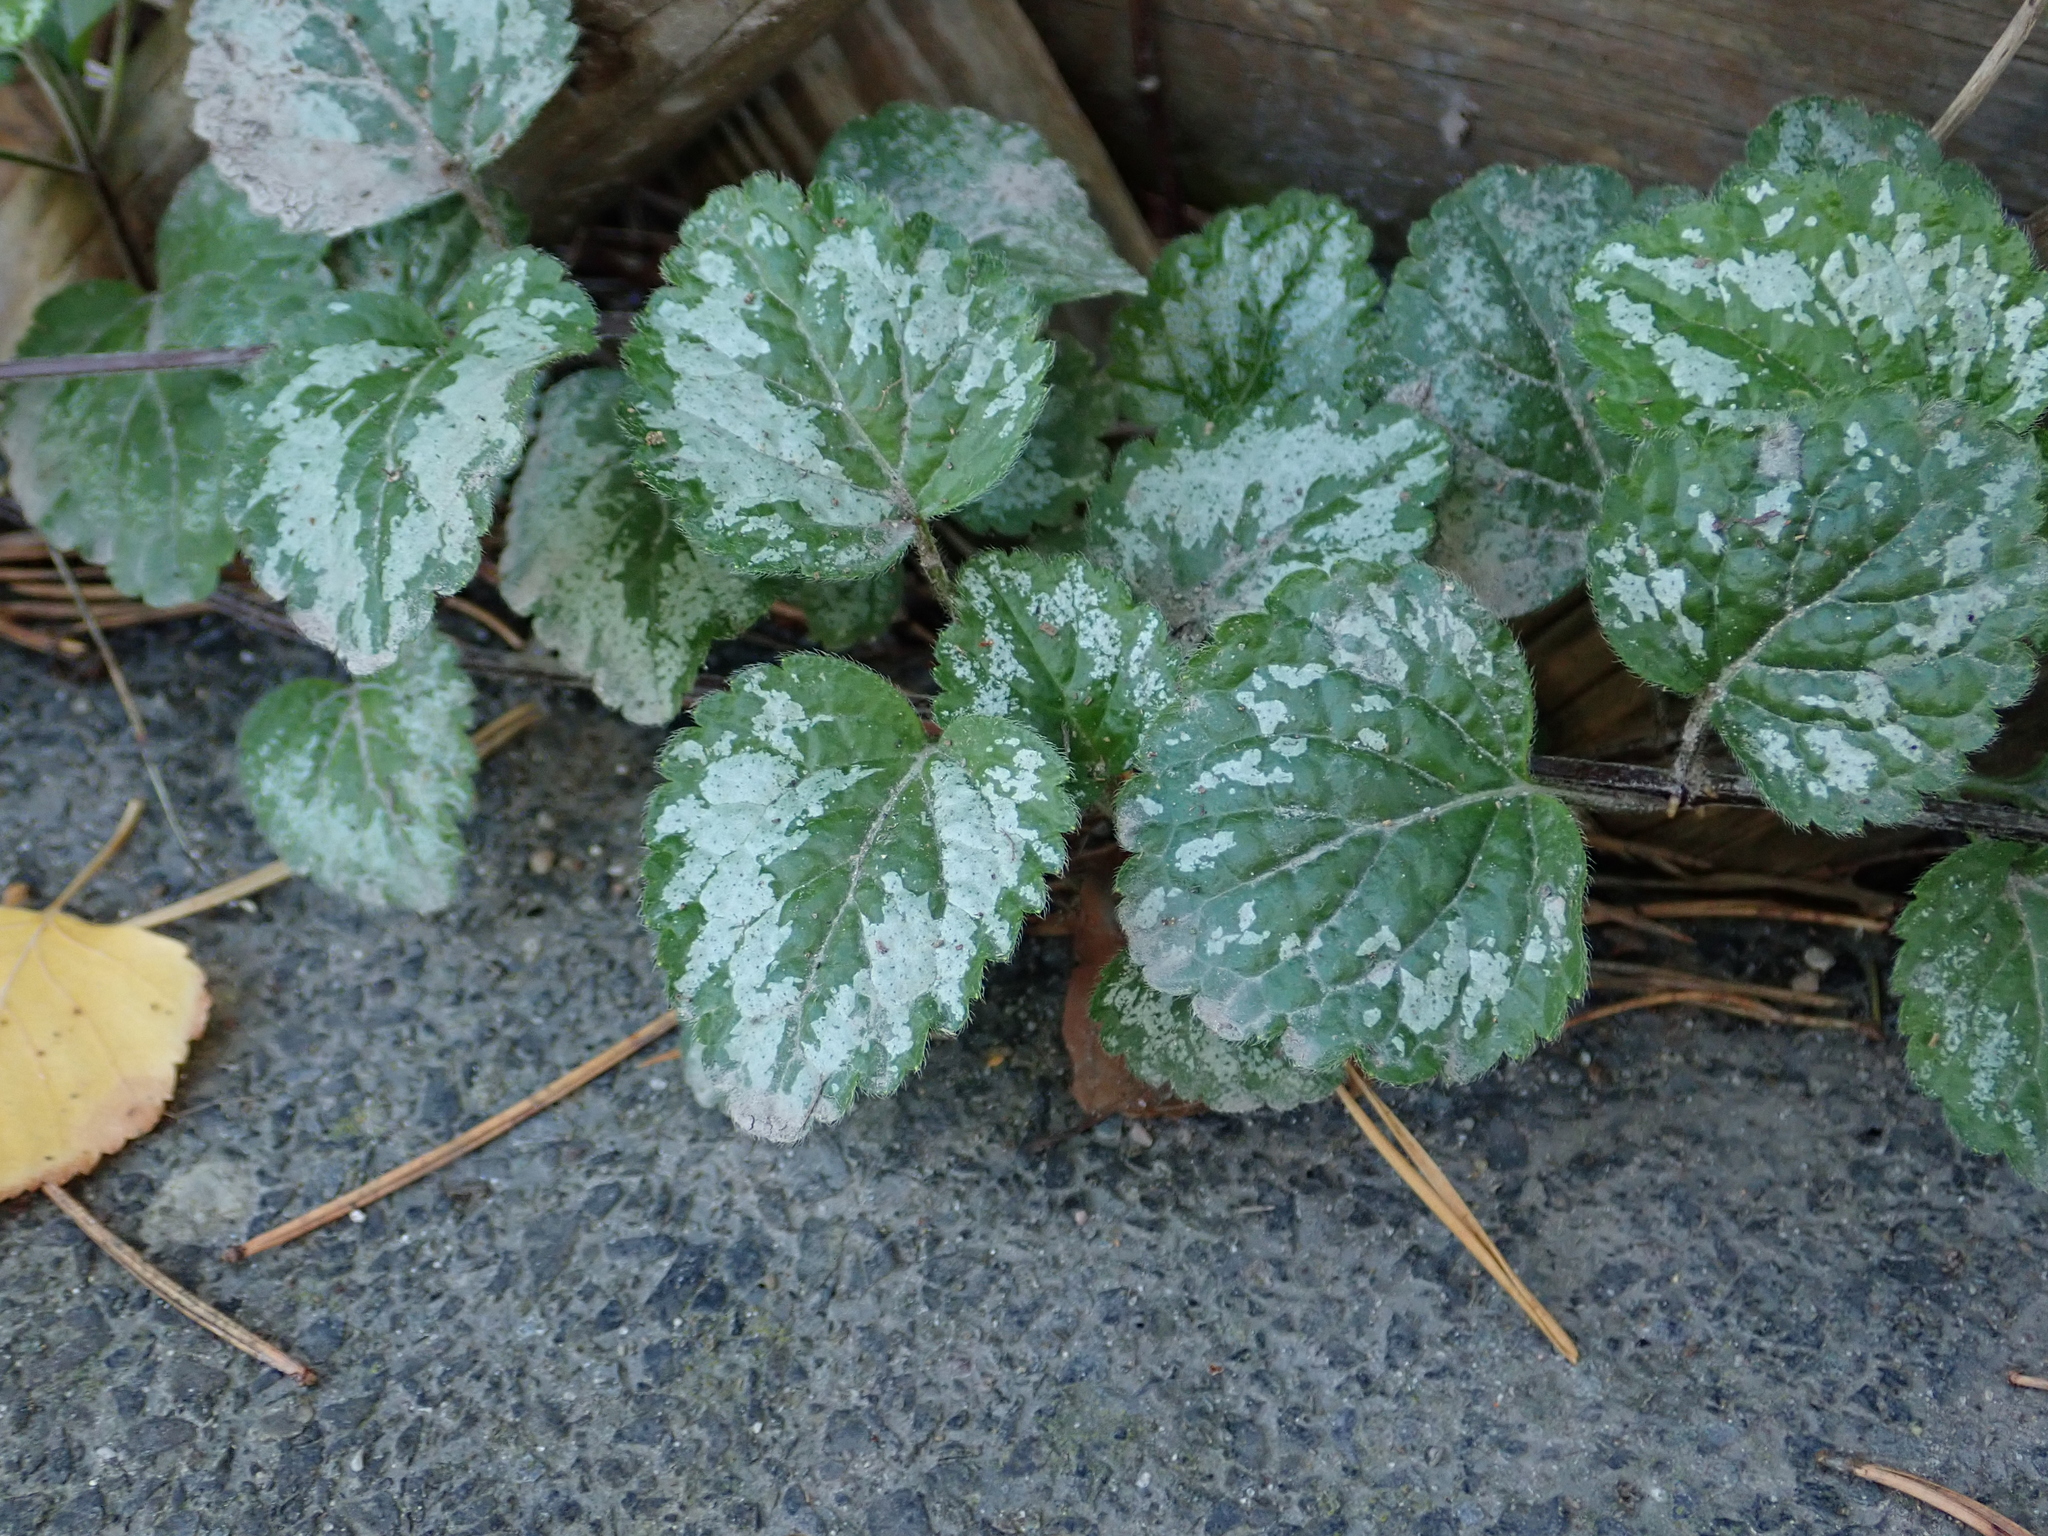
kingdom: Plantae
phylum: Tracheophyta
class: Magnoliopsida
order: Lamiales
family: Lamiaceae
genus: Lamium
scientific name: Lamium galeobdolon
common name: Yellow archangel
